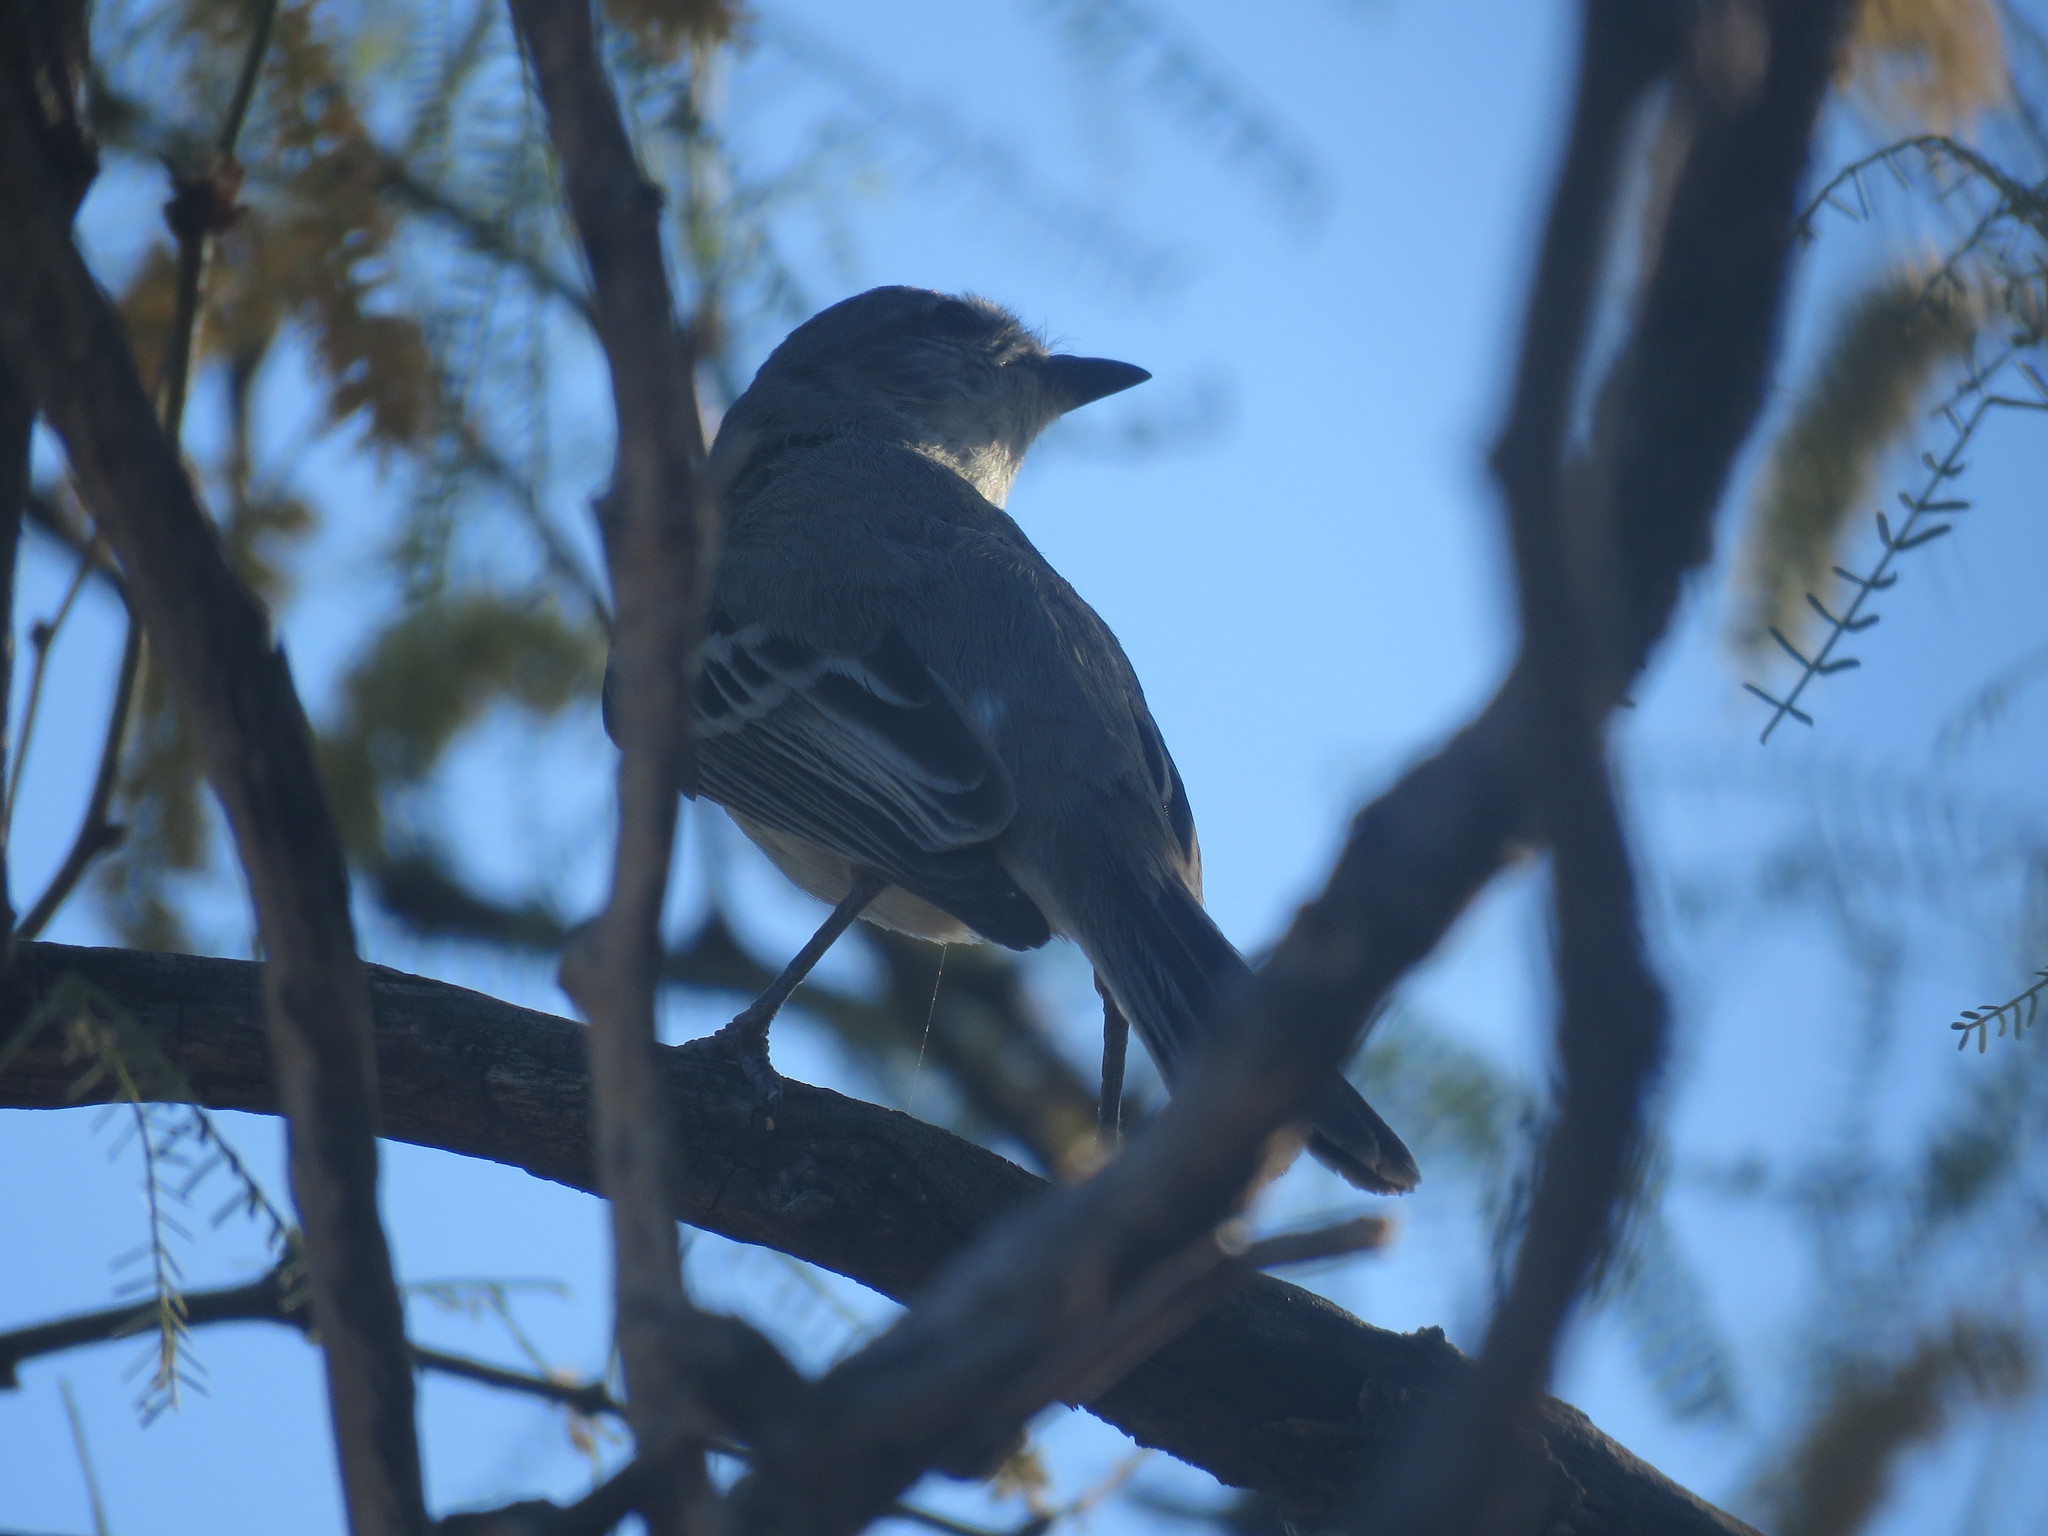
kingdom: Animalia
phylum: Chordata
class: Aves
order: Passeriformes
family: Tyrannidae
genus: Suiriri
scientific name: Suiriri suiriri
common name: Suiriri flycatcher
